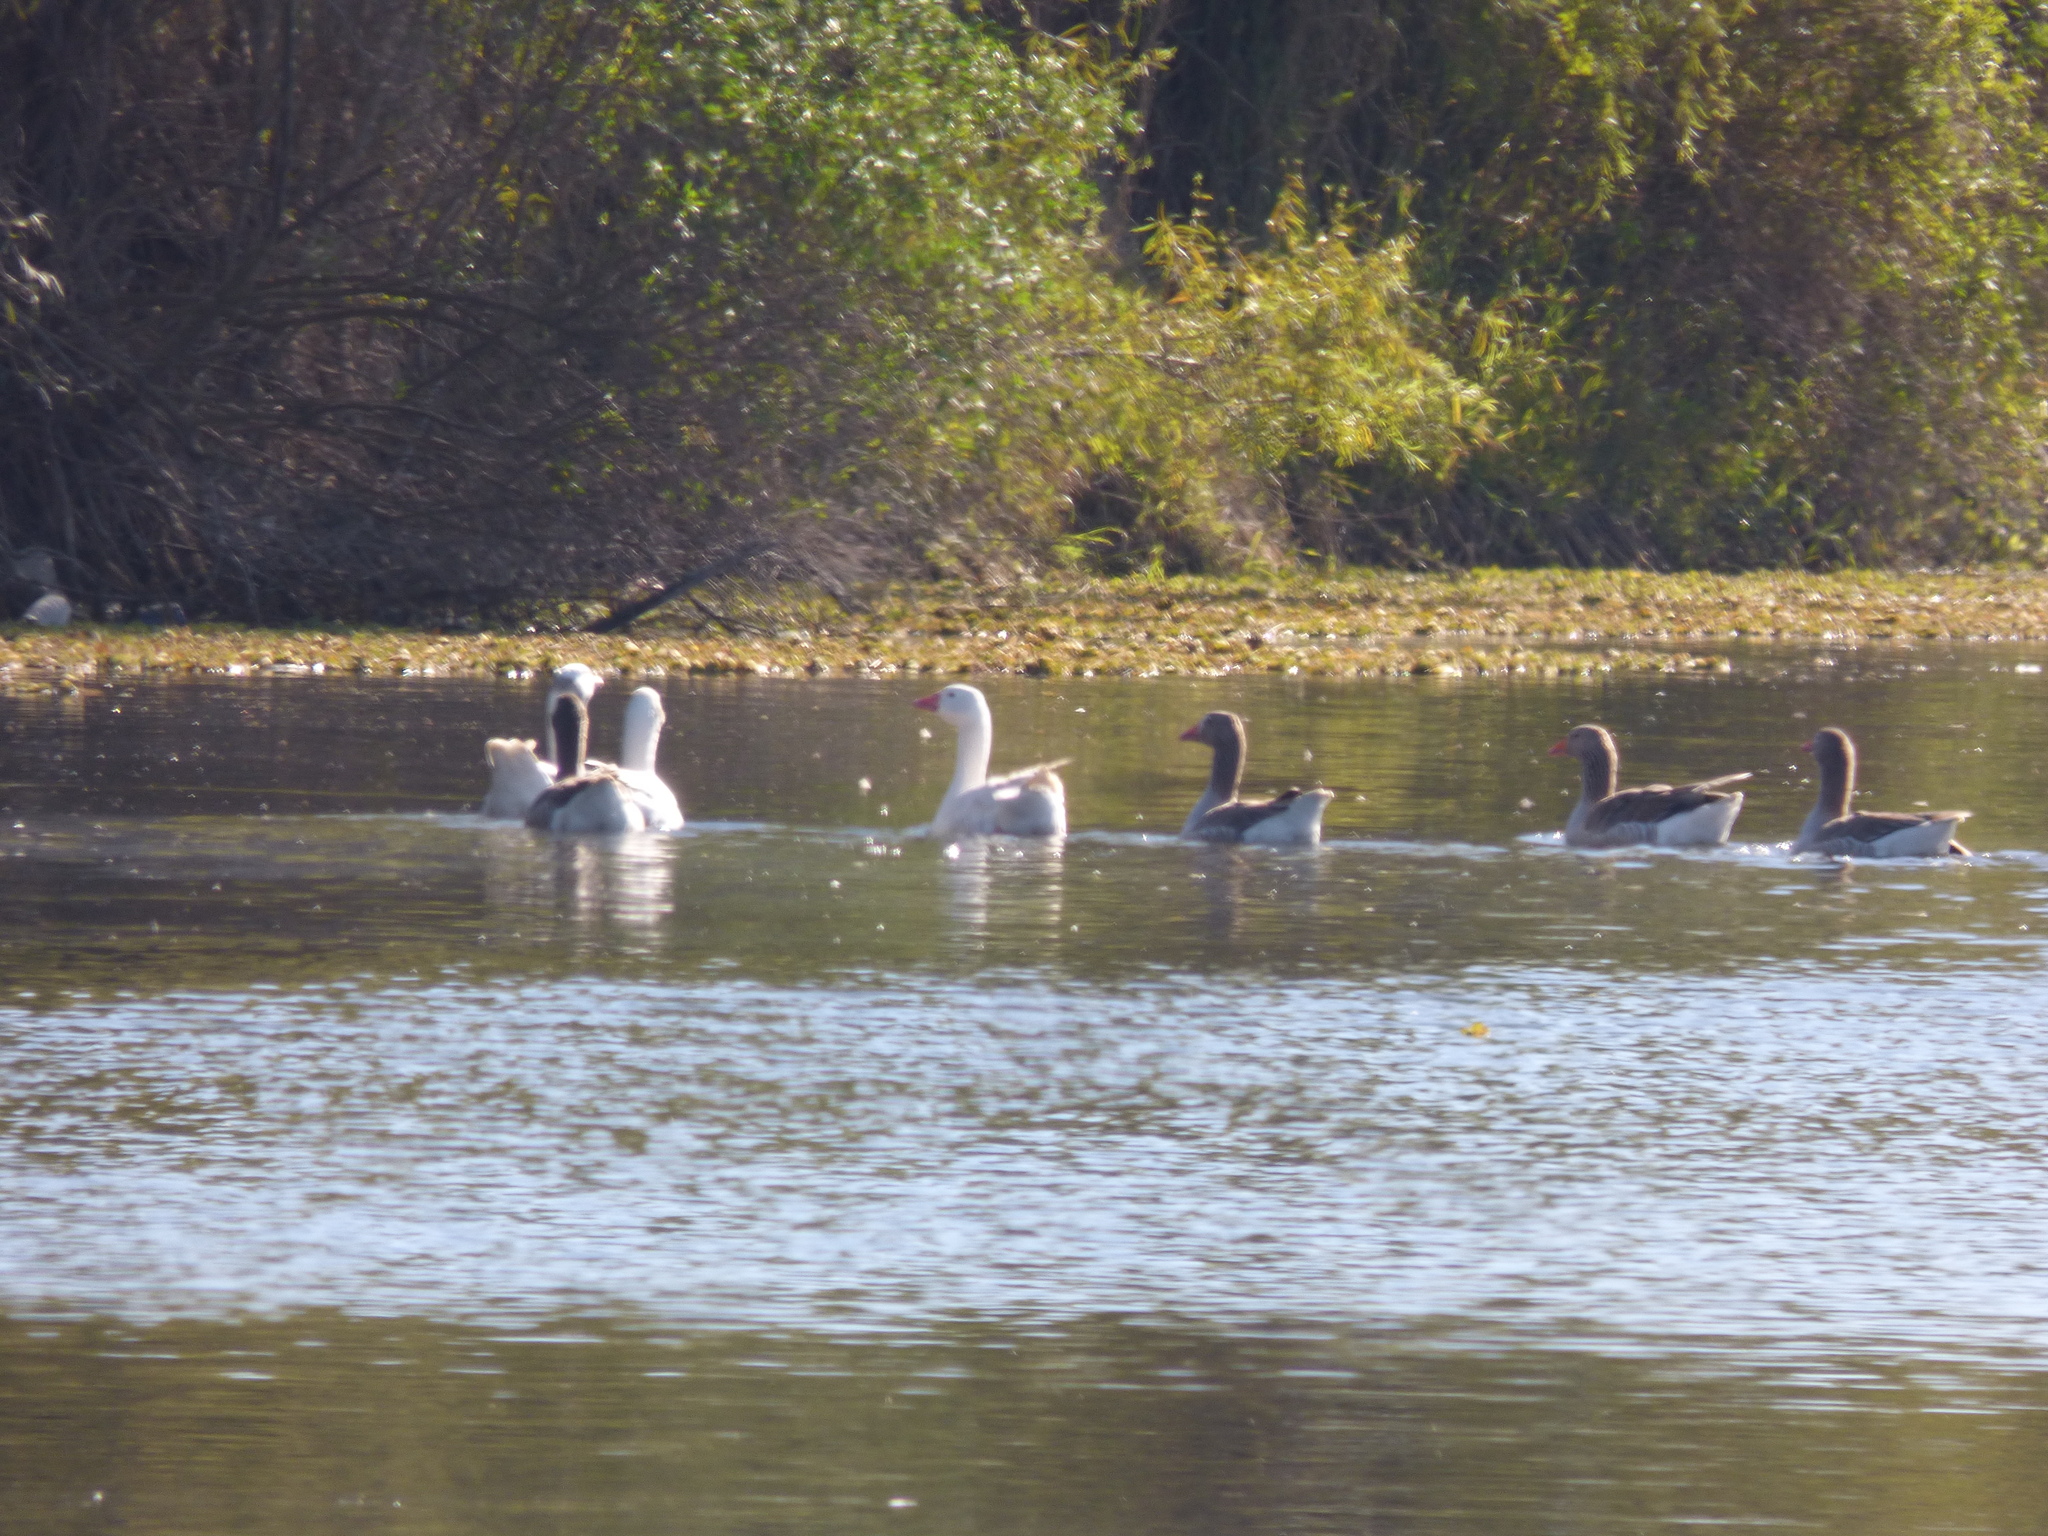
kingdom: Animalia
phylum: Chordata
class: Aves
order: Anseriformes
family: Anatidae
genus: Anser
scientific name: Anser anser
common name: Greylag goose
